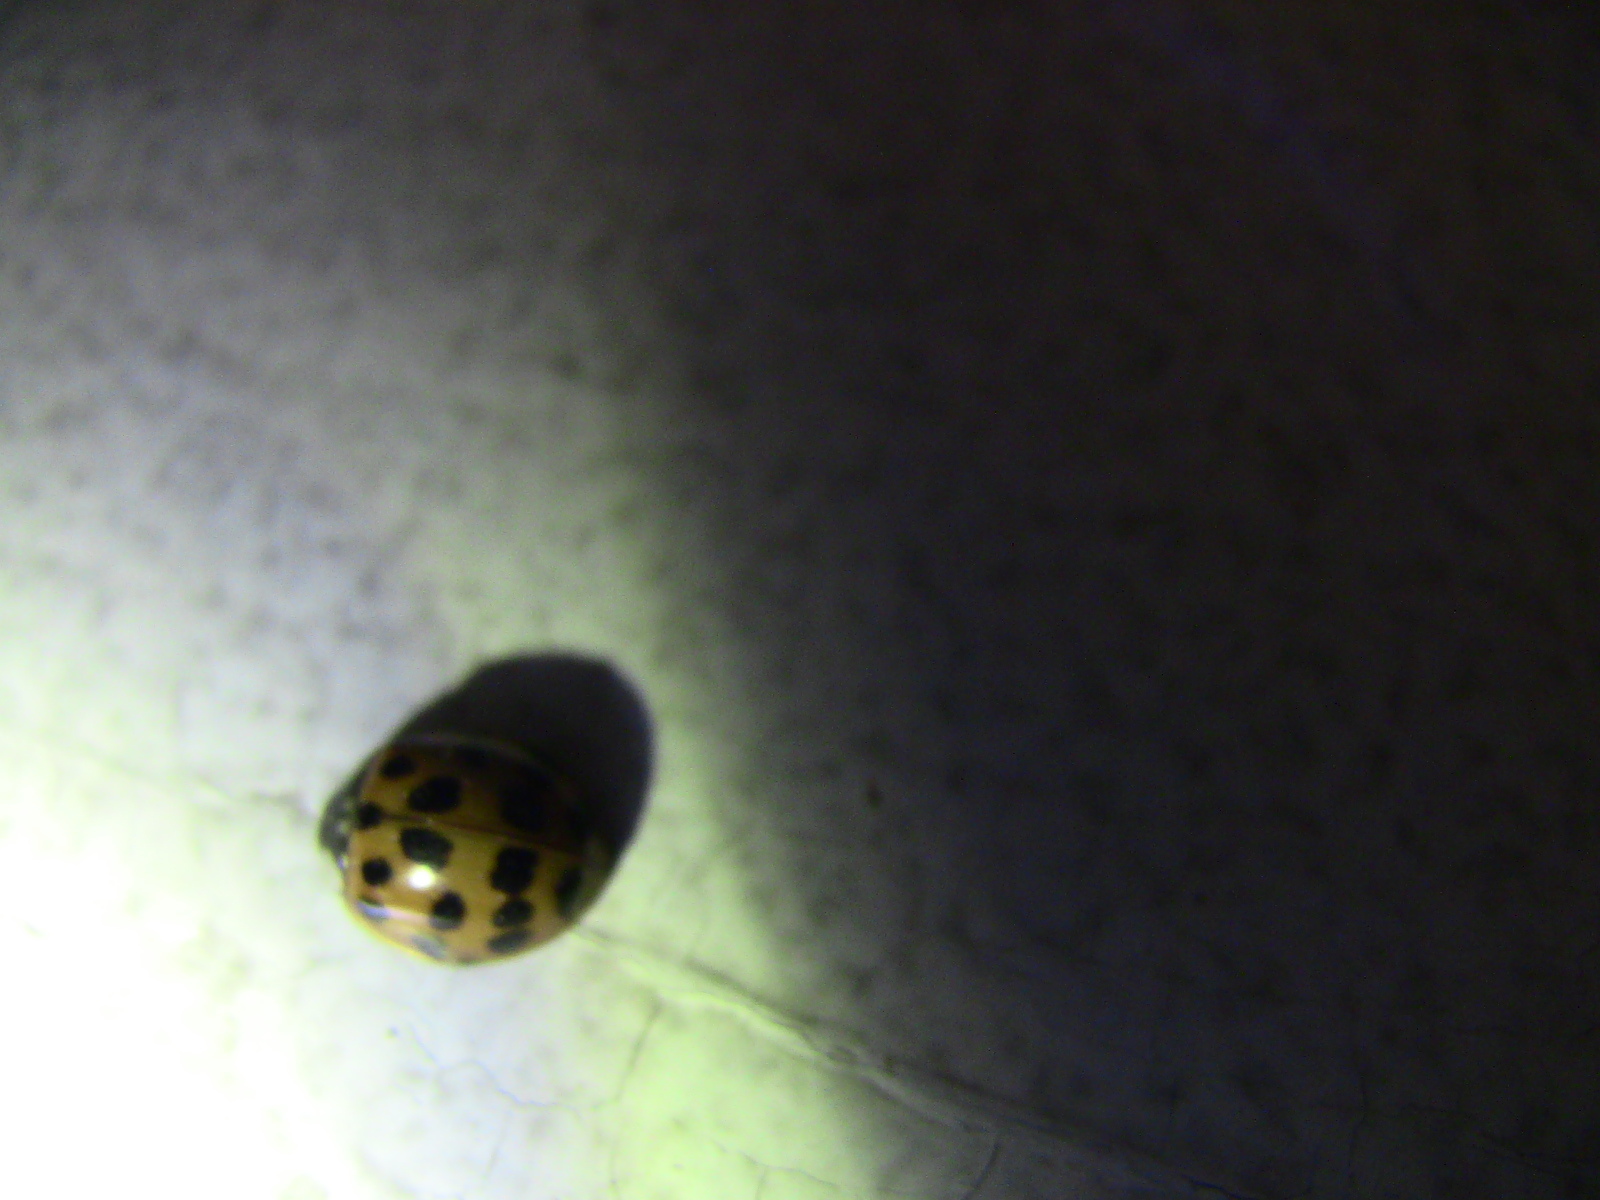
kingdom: Animalia
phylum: Arthropoda
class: Insecta
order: Coleoptera
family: Coccinellidae
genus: Harmonia
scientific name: Harmonia axyridis
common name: Harlequin ladybird
